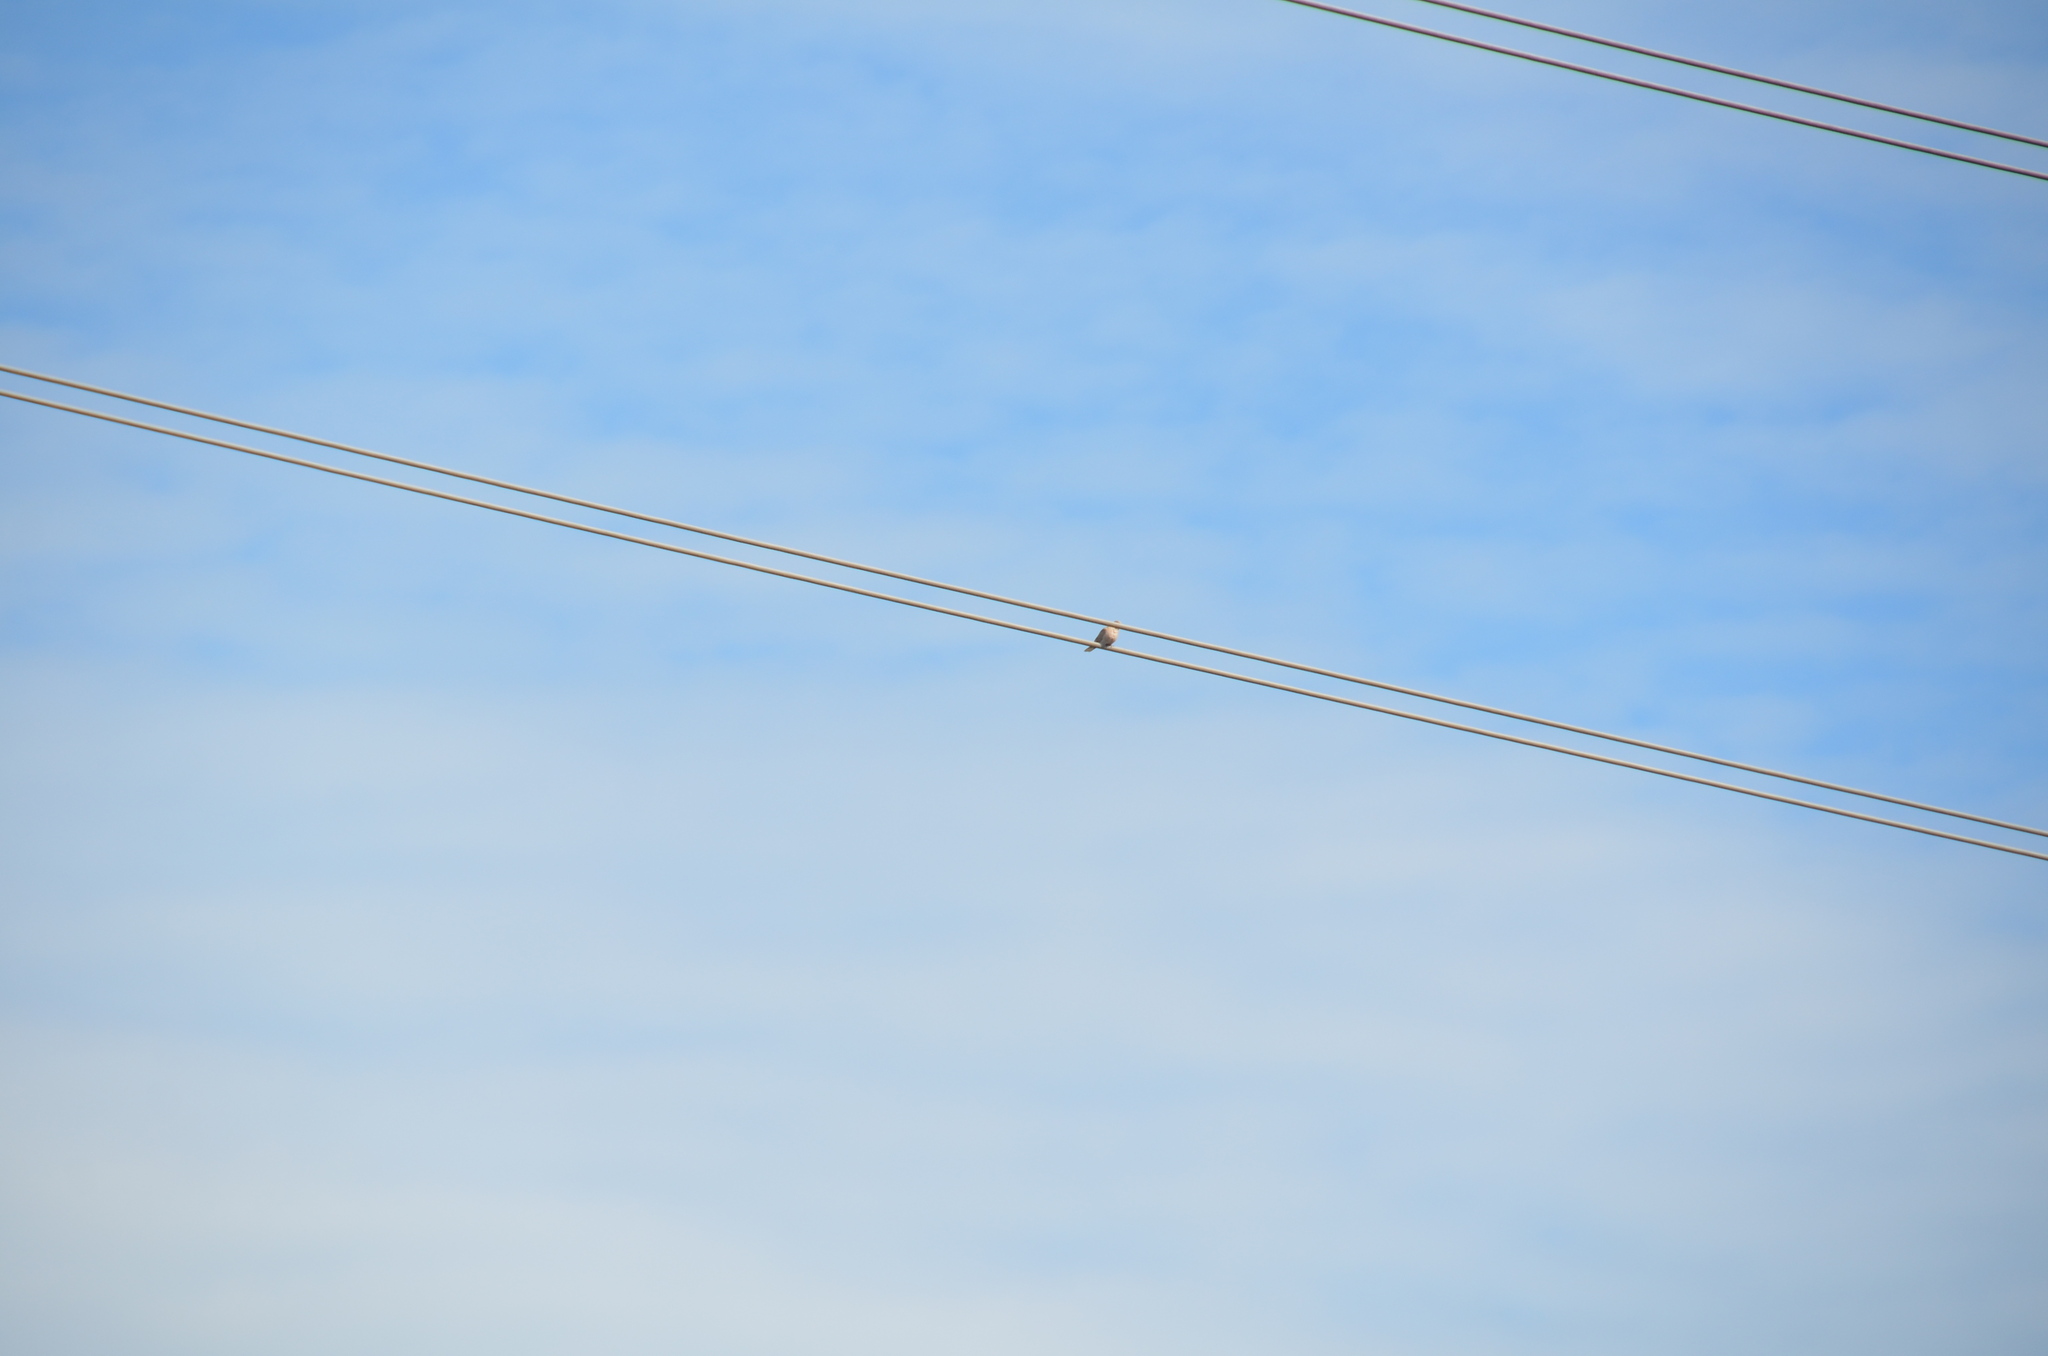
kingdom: Animalia
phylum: Chordata
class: Aves
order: Columbiformes
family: Columbidae
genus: Streptopelia
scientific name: Streptopelia decaocto
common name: Eurasian collared dove
